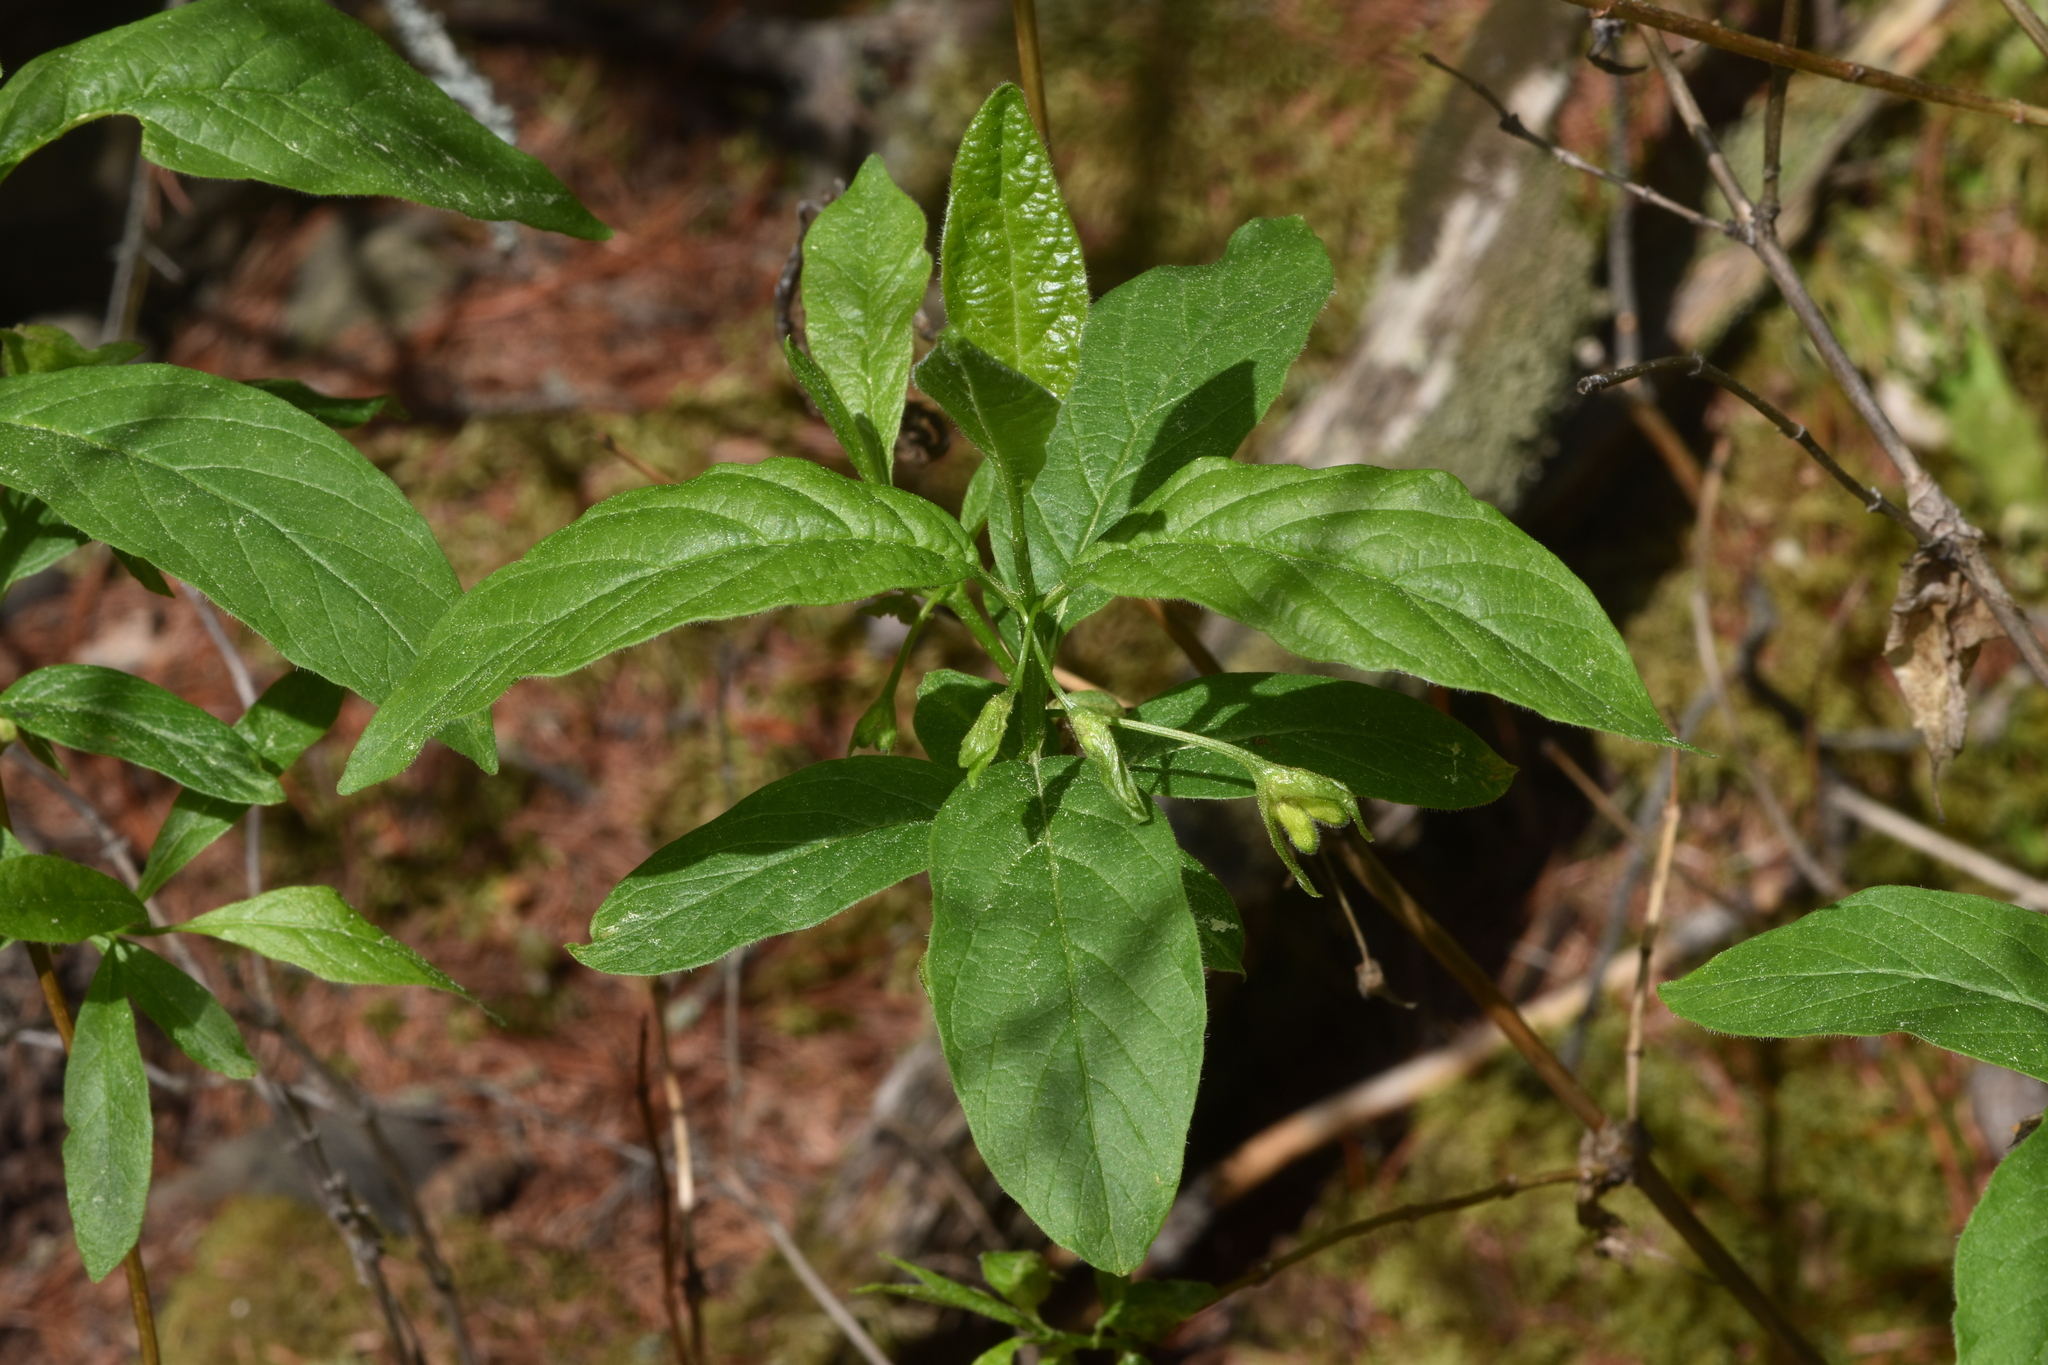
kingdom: Plantae
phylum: Tracheophyta
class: Magnoliopsida
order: Dipsacales
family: Caprifoliaceae
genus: Lonicera
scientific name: Lonicera involucrata
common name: Californian honeysuckle
